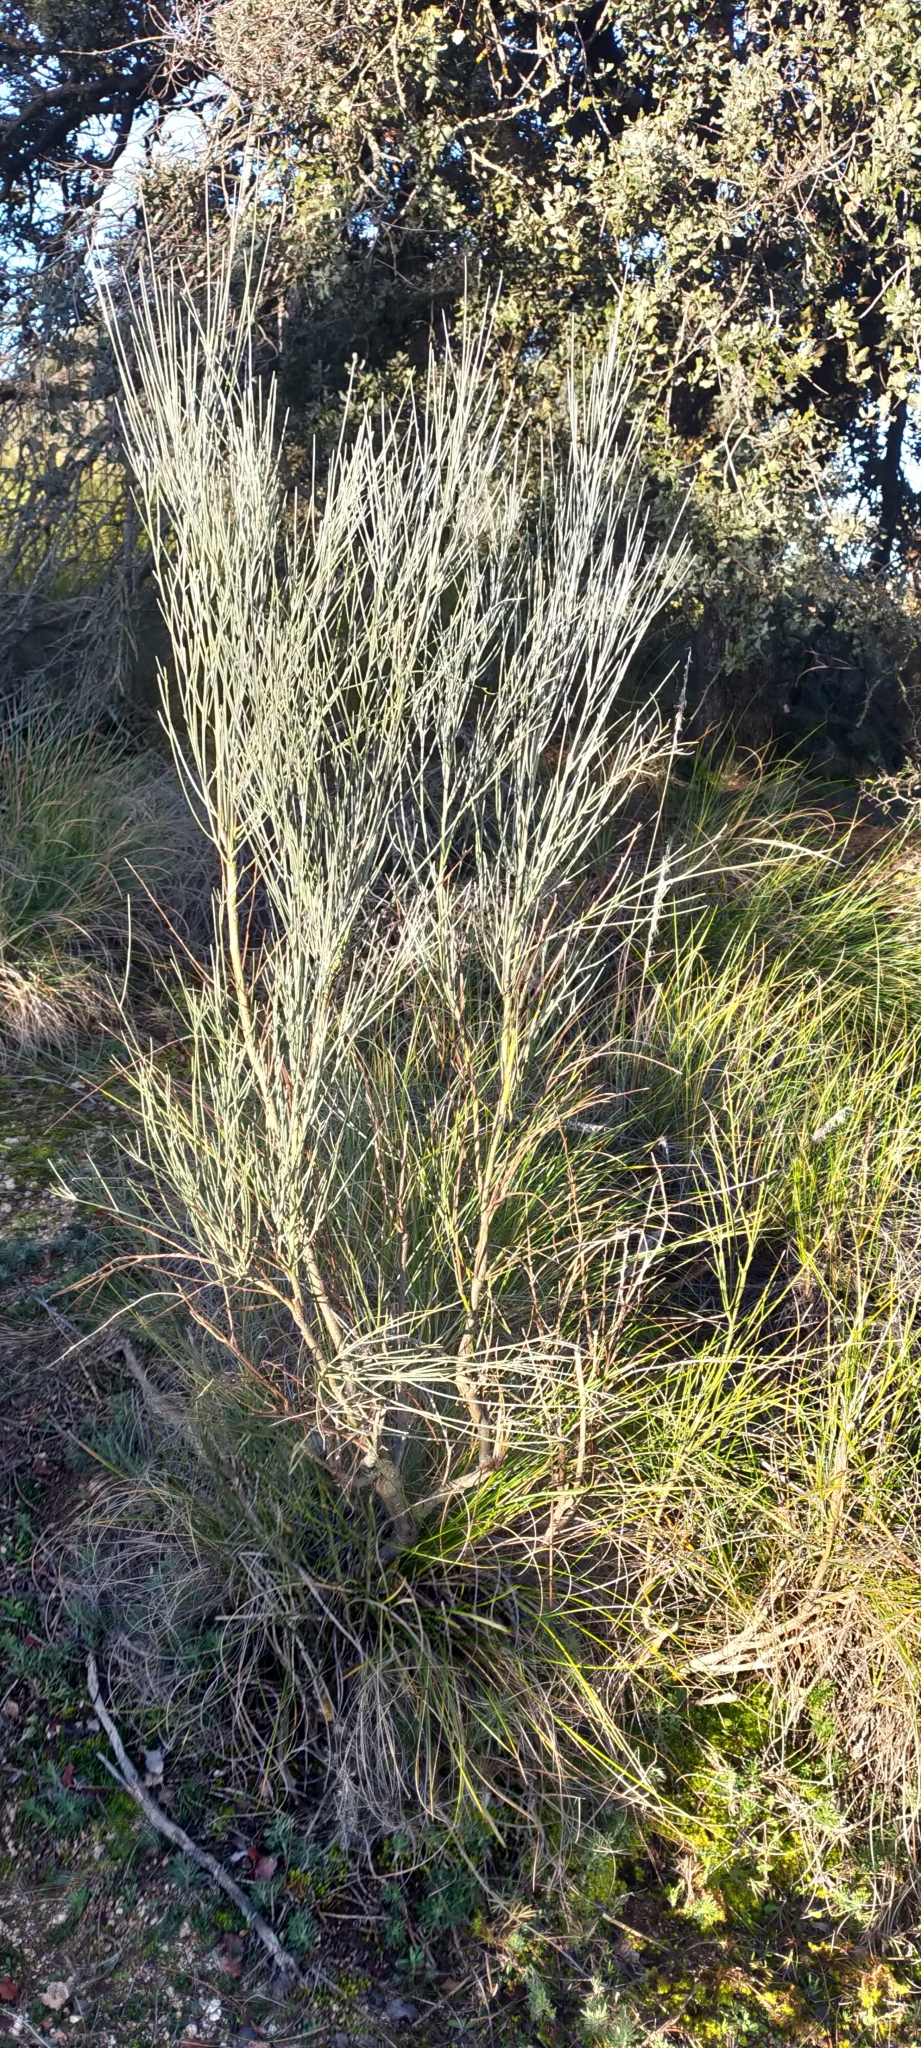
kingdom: Plantae
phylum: Tracheophyta
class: Magnoliopsida
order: Fabales
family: Fabaceae
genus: Retama
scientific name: Retama sphaerocarpa
